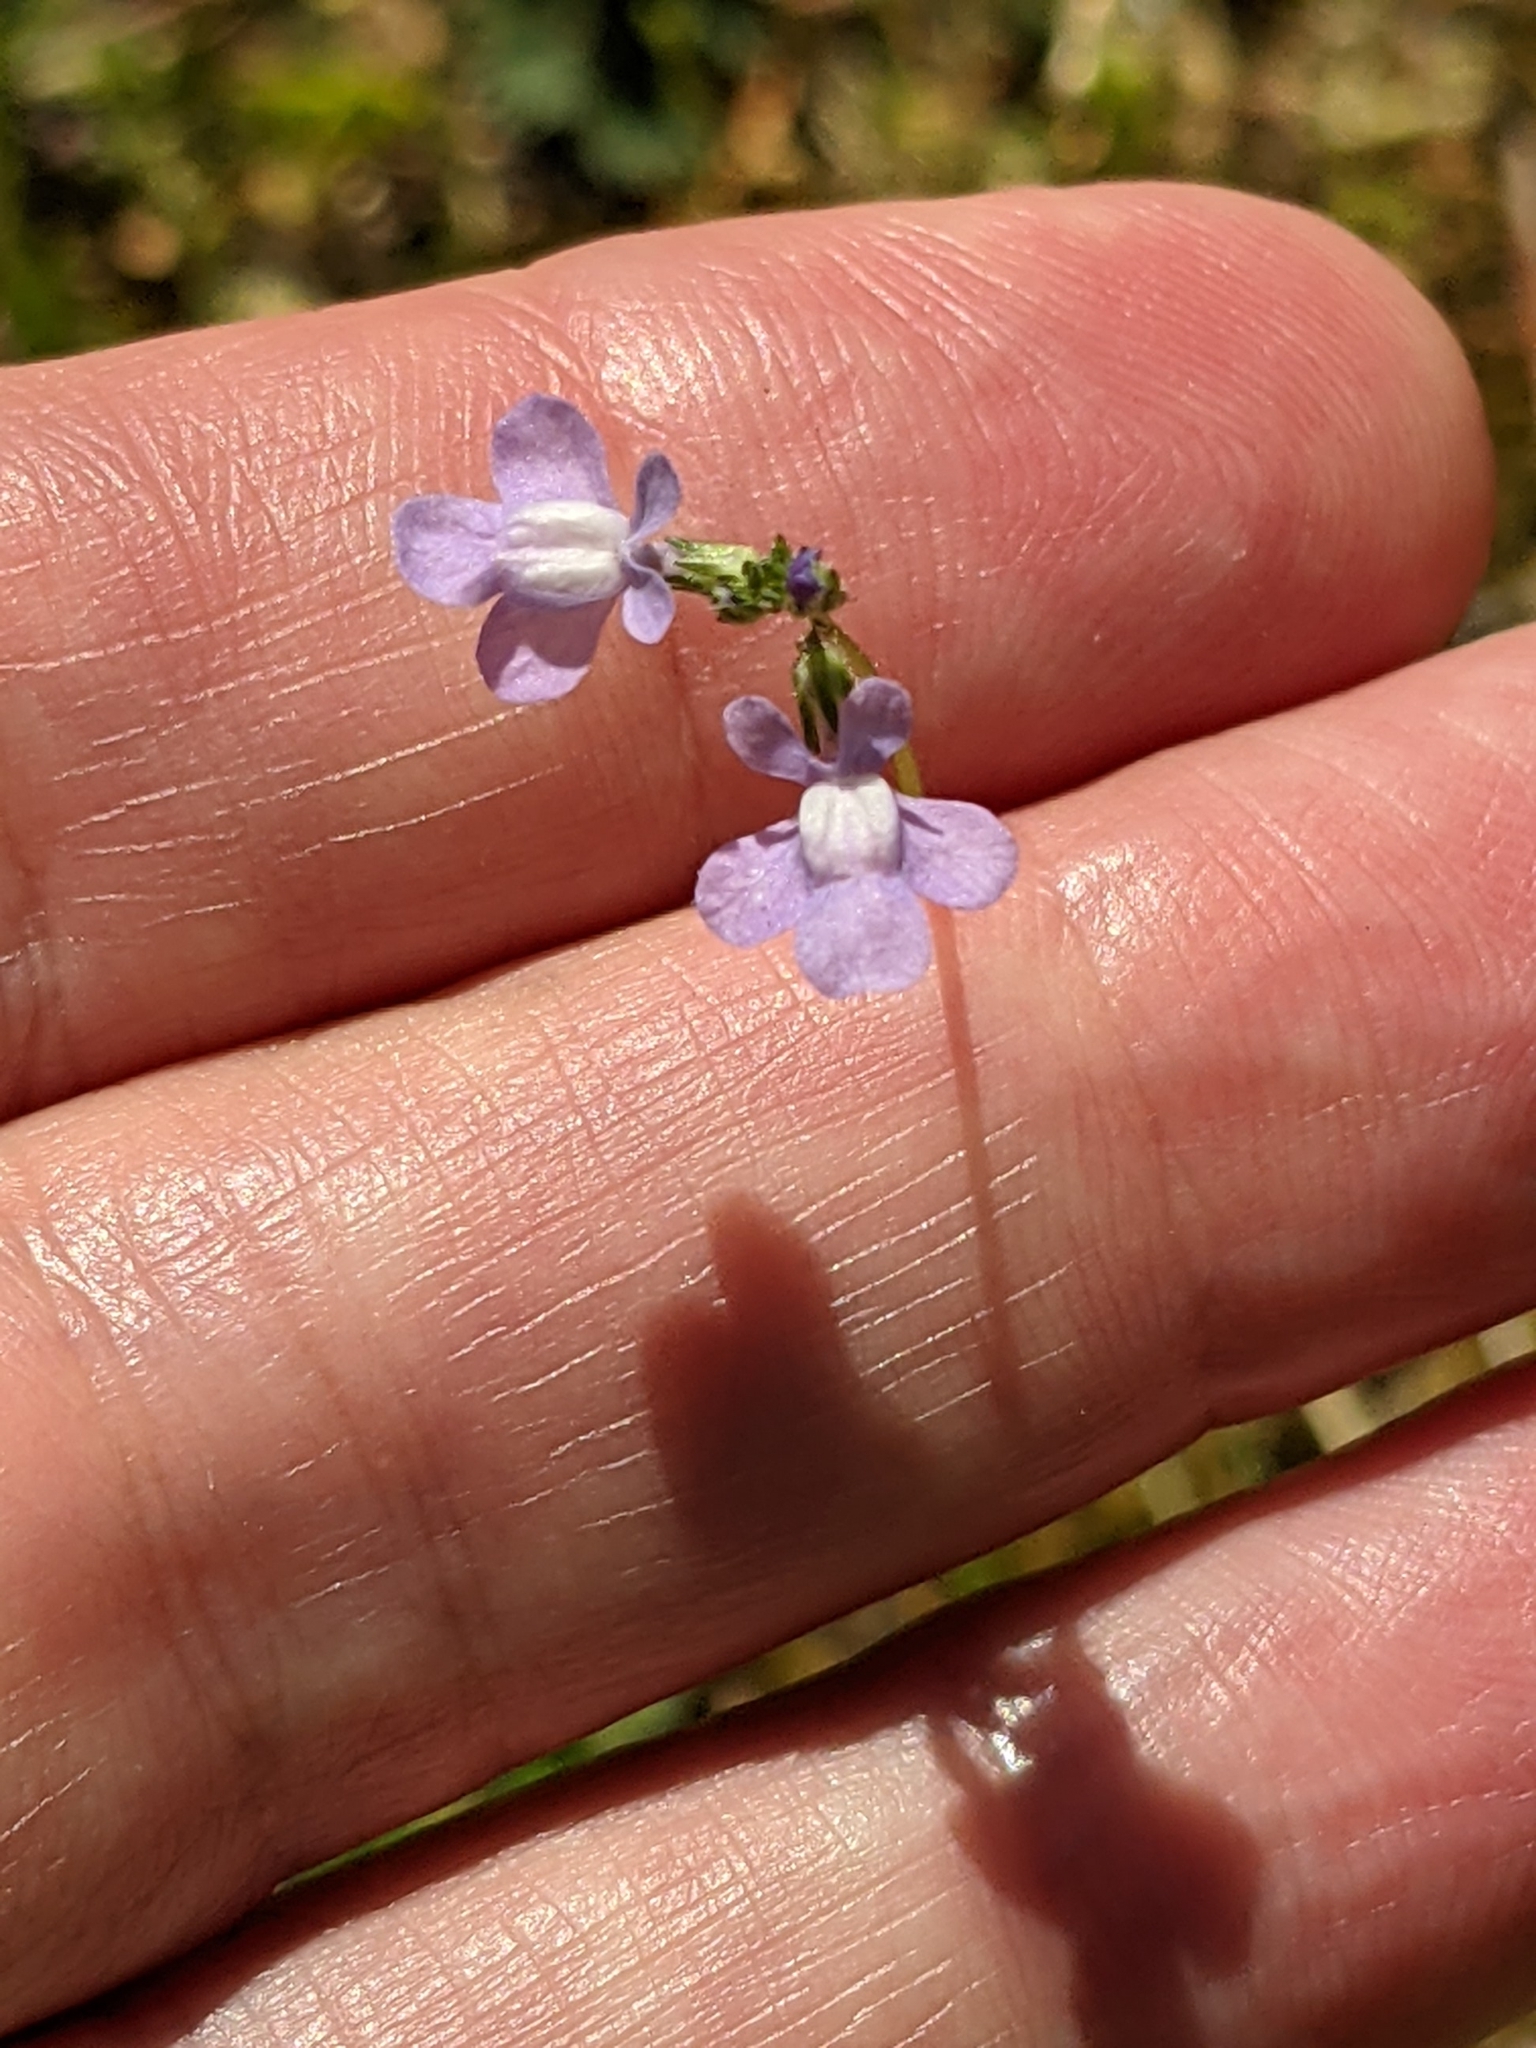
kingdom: Plantae
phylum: Tracheophyta
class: Magnoliopsida
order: Lamiales
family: Plantaginaceae
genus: Nuttallanthus
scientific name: Nuttallanthus canadensis
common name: Blue toadflax
